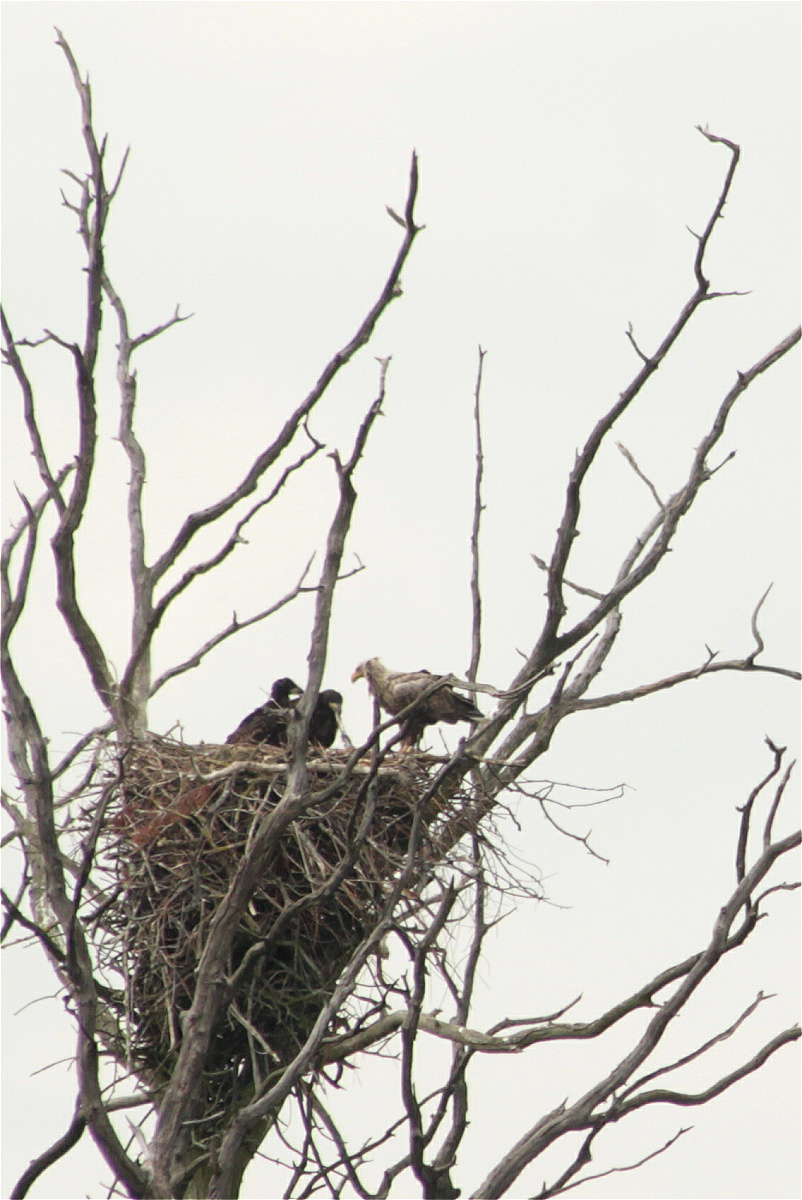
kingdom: Animalia
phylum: Chordata
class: Aves
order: Accipitriformes
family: Accipitridae
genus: Haliaeetus
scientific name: Haliaeetus albicilla
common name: White-tailed eagle
